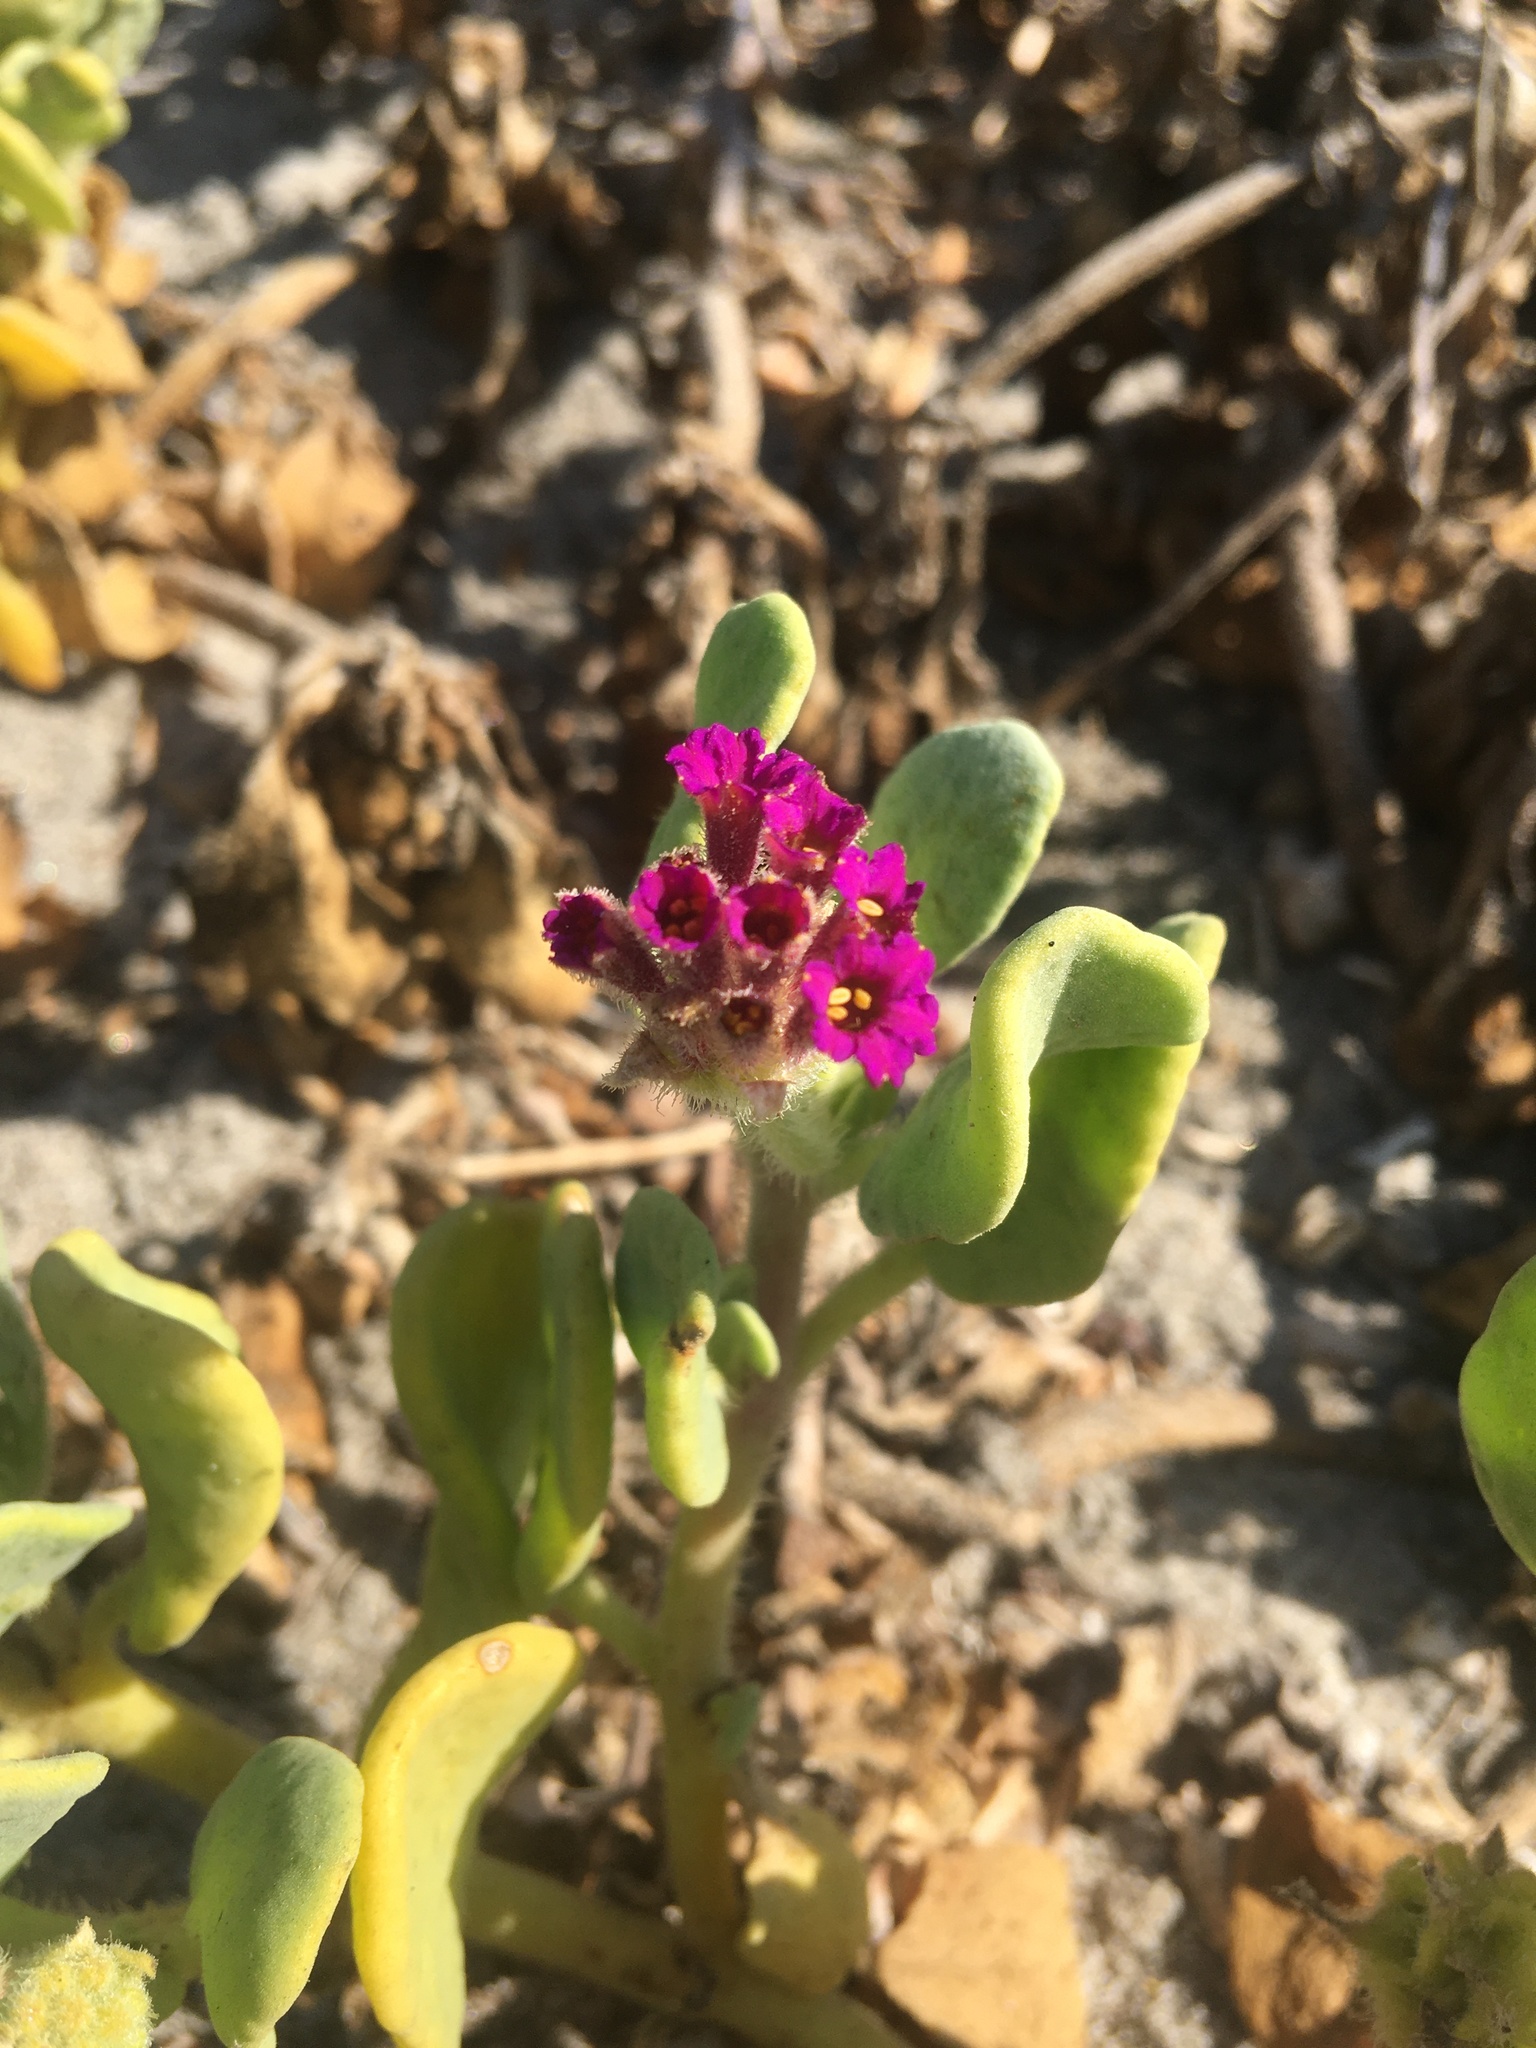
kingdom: Plantae
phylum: Tracheophyta
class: Magnoliopsida
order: Caryophyllales
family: Nyctaginaceae
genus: Abronia
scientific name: Abronia maritima
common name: Red sand-verbena
